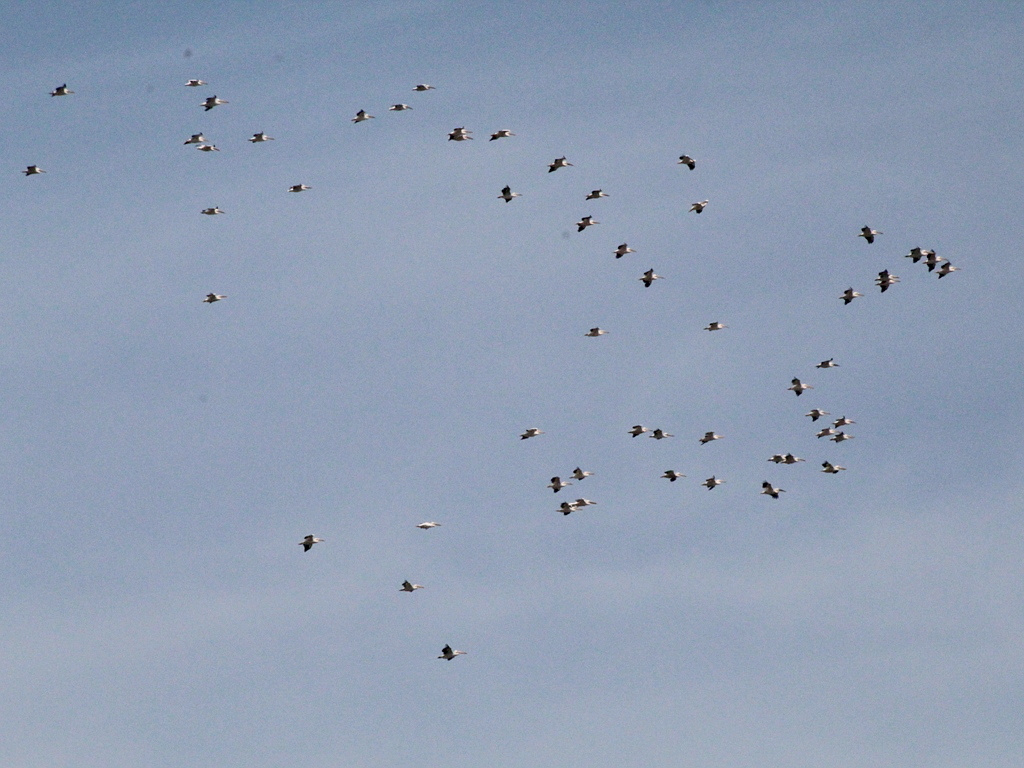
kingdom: Animalia
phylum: Chordata
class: Aves
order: Pelecaniformes
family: Pelecanidae
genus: Pelecanus
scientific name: Pelecanus onocrotalus
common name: Great white pelican
